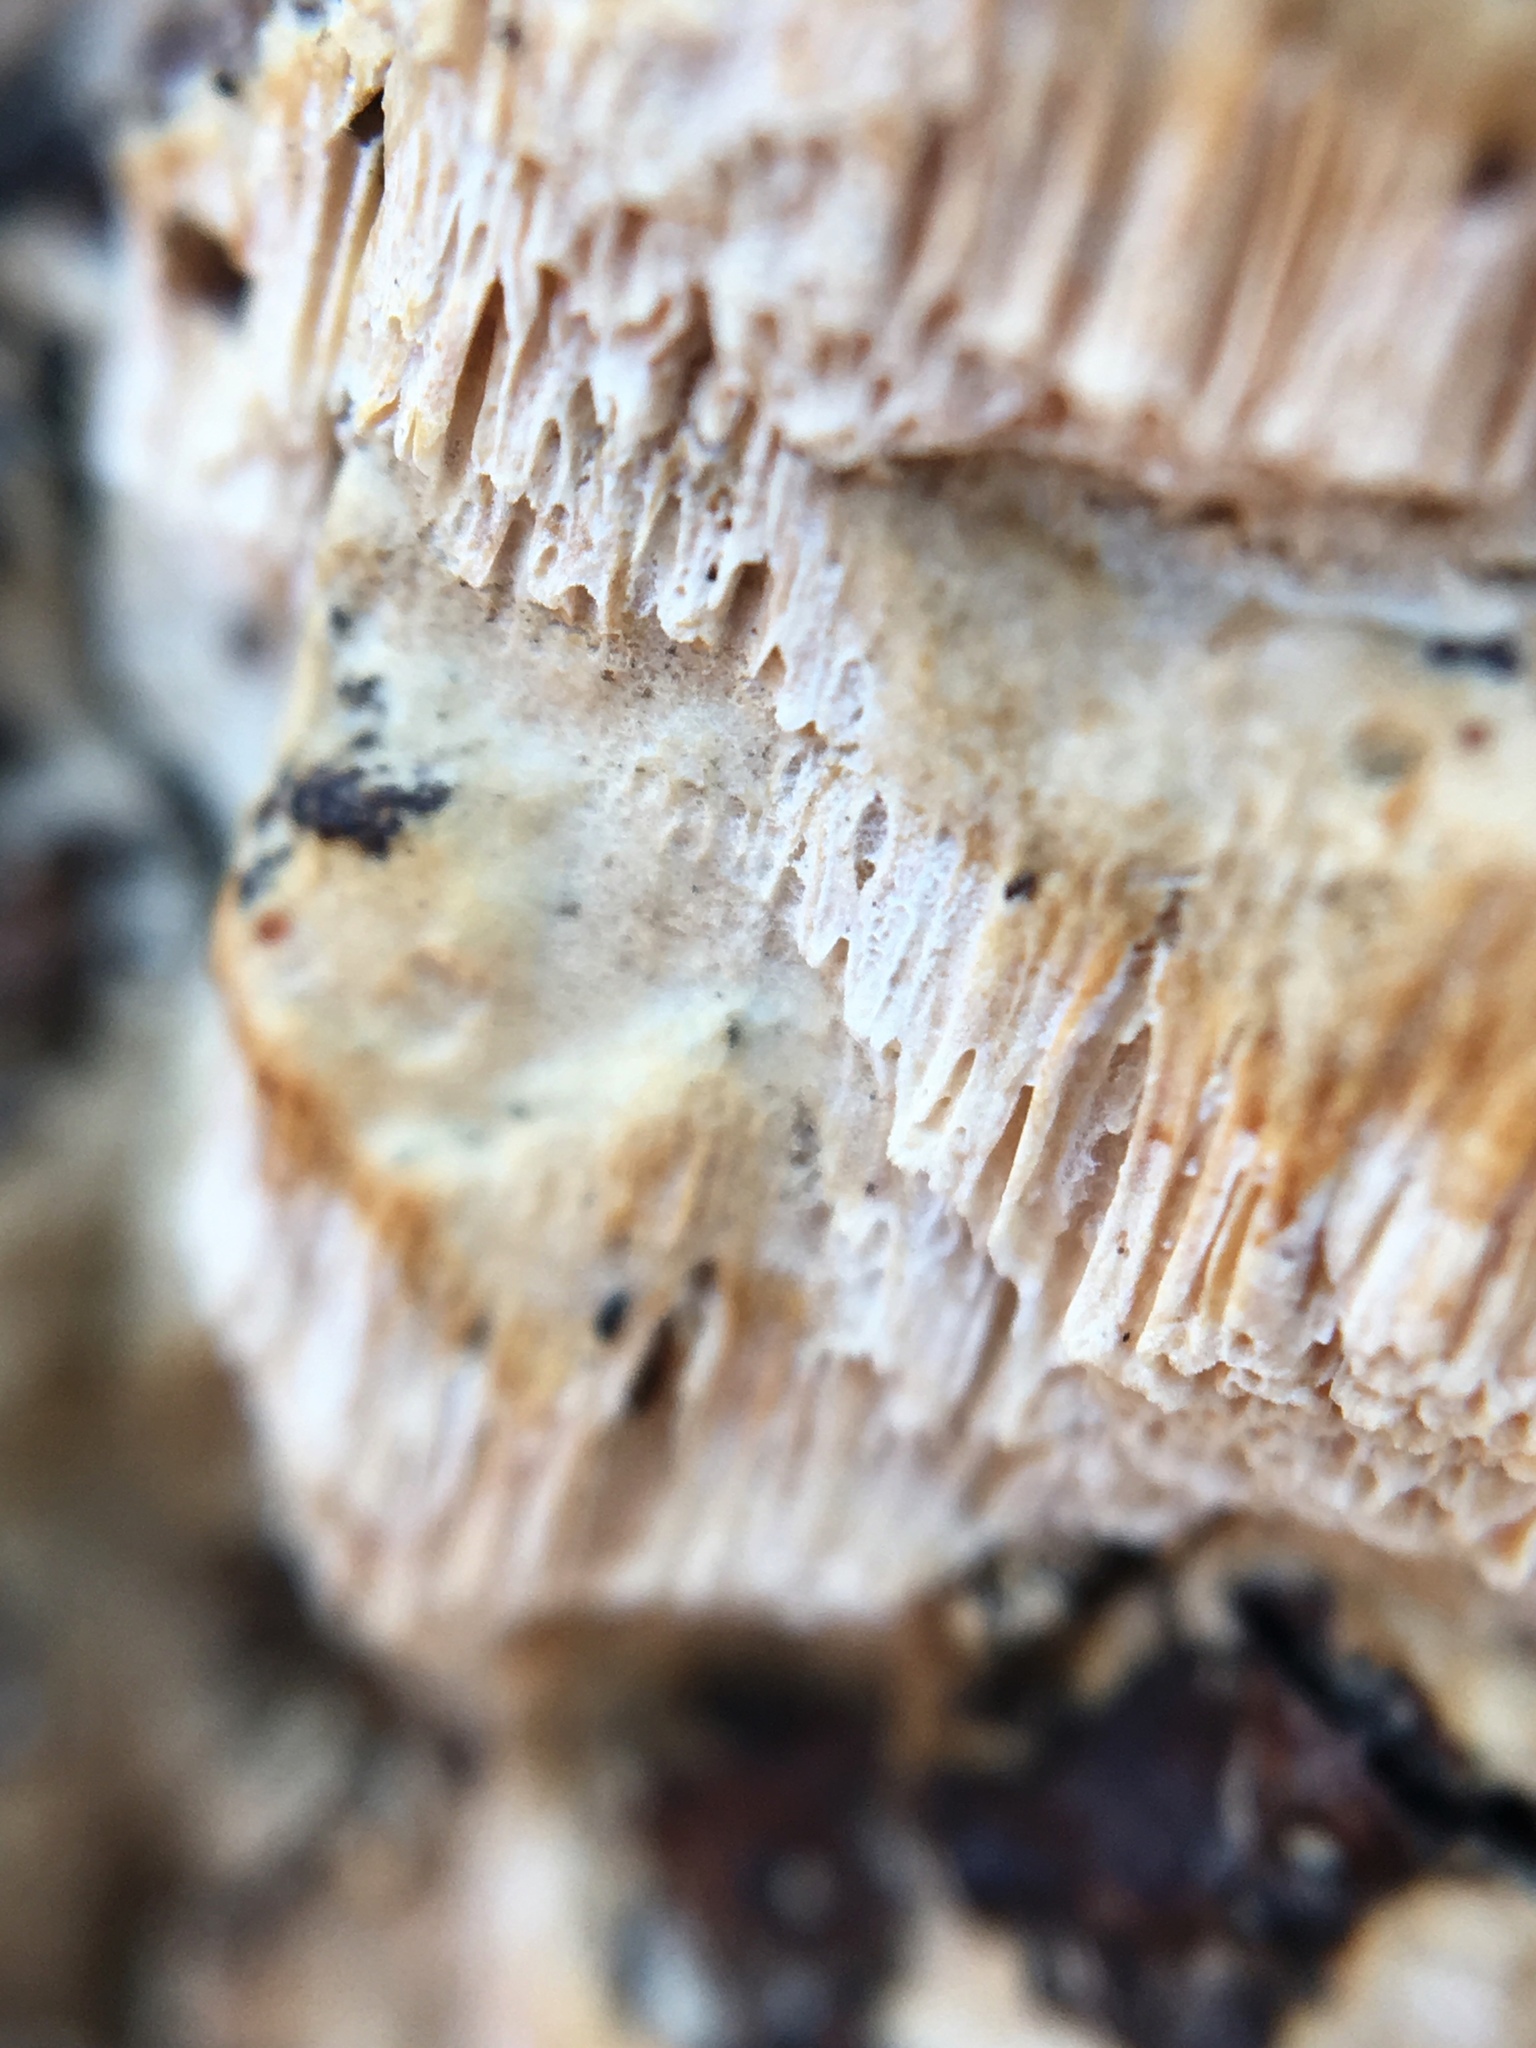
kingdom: Fungi
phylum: Basidiomycota
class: Agaricomycetes
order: Polyporales
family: Irpicaceae
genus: Irpex
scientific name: Irpex lacteus
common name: Milk-white toothed polypore
